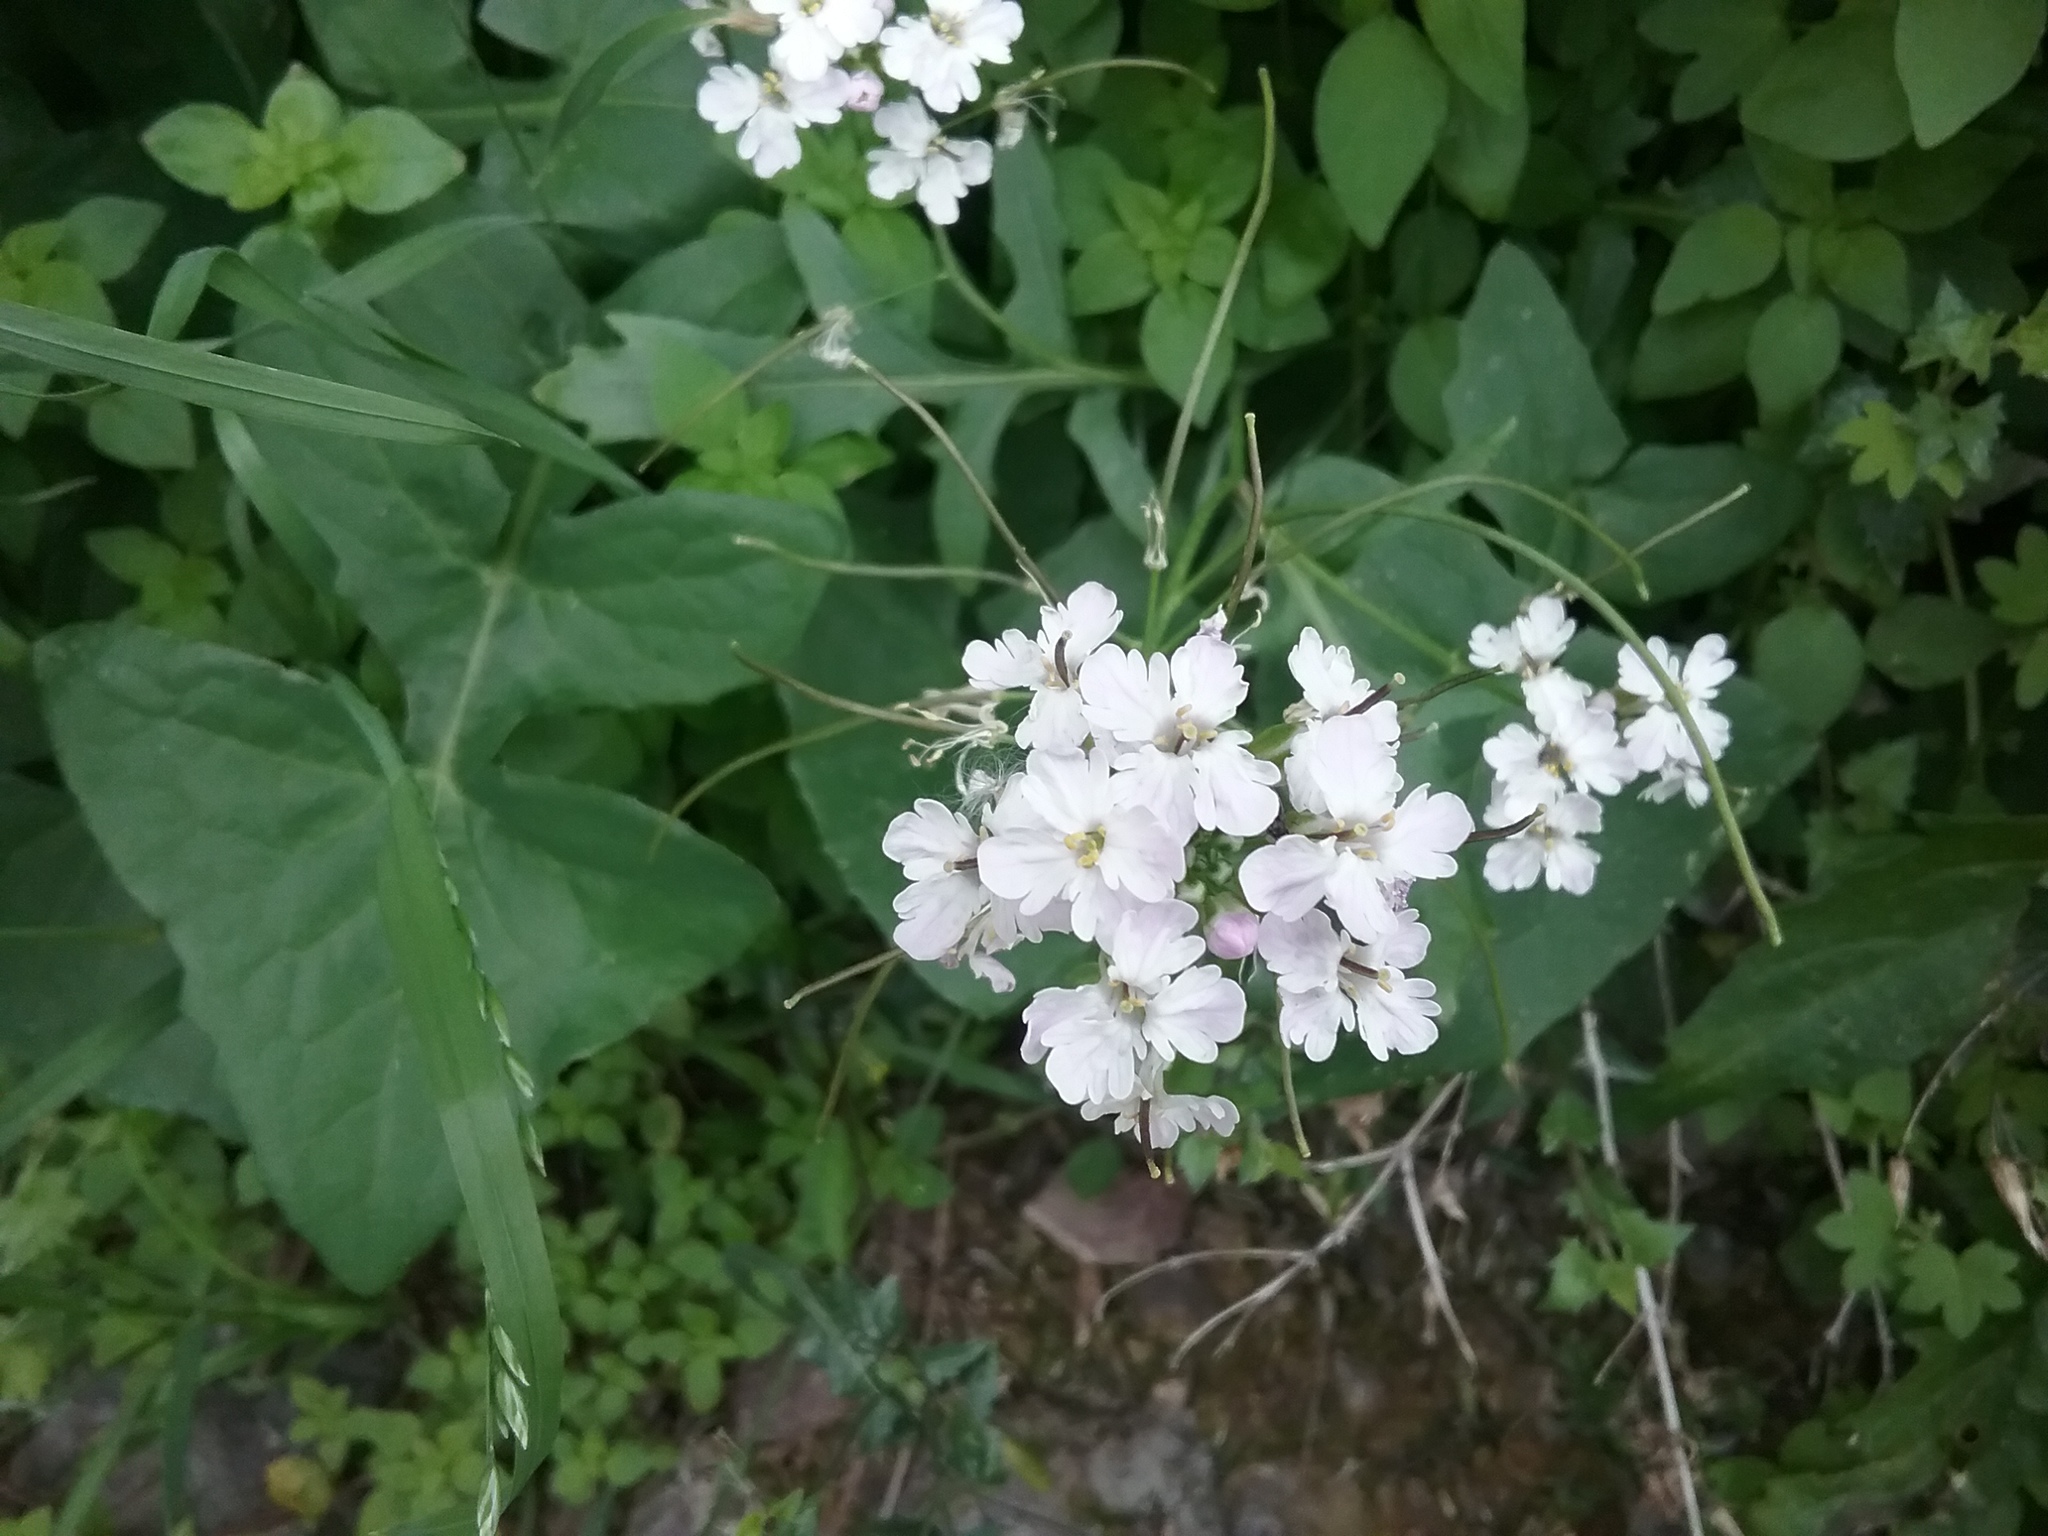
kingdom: Plantae
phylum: Tracheophyta
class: Magnoliopsida
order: Brassicales
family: Brassicaceae
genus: Dryopetalon
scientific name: Dryopetalon runcinatum
